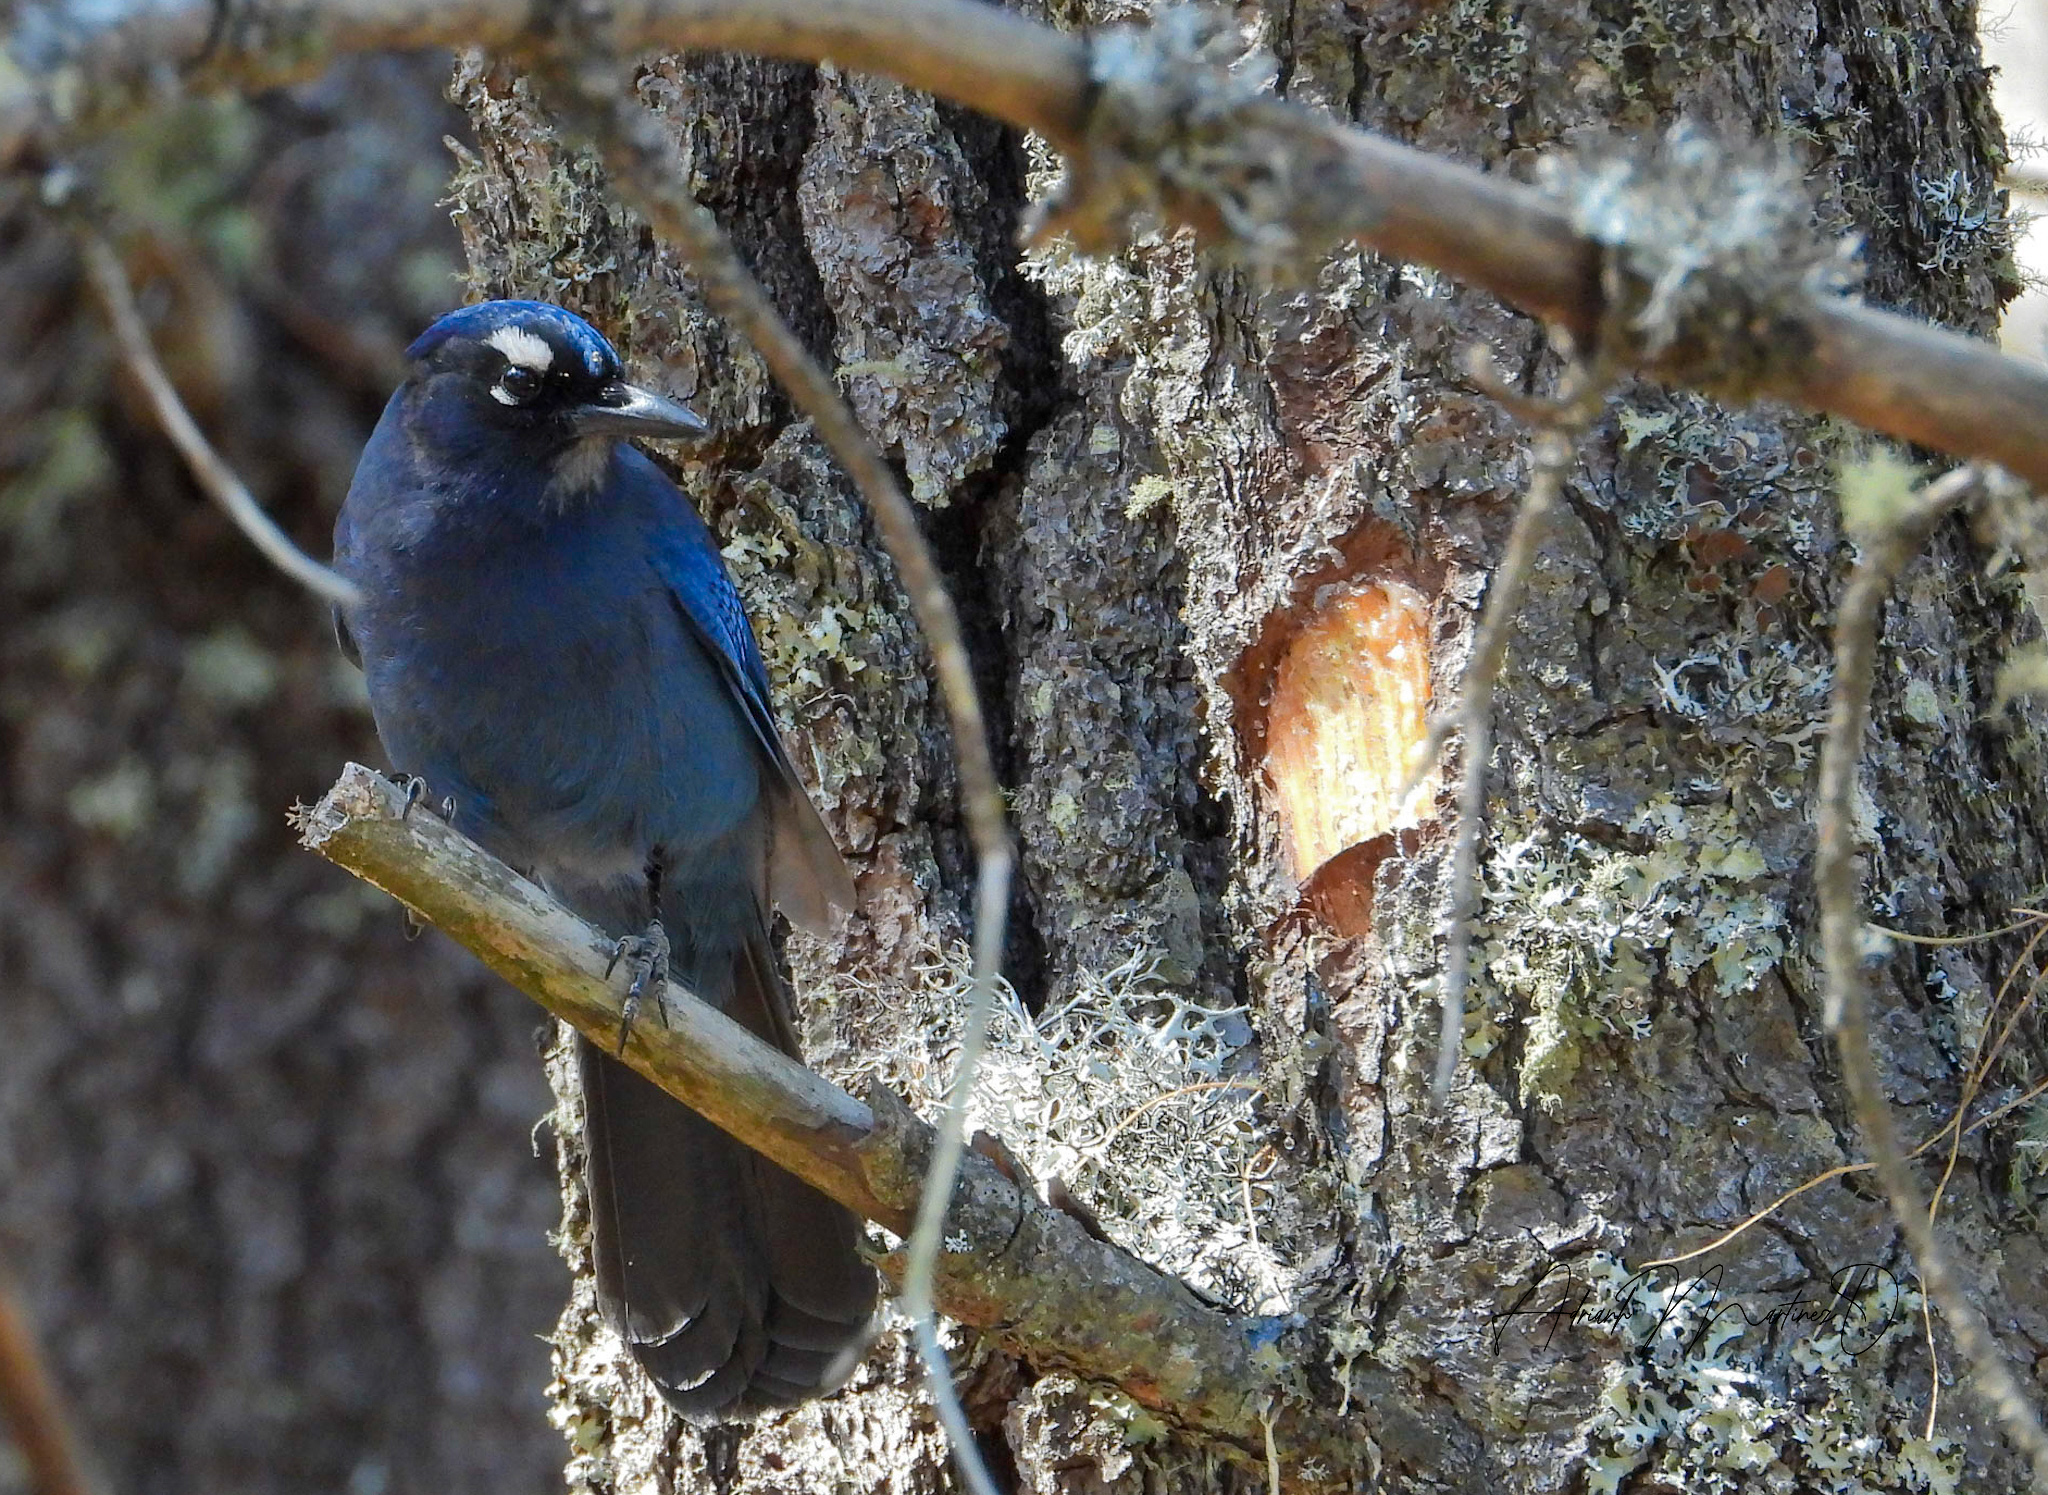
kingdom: Animalia
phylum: Chordata
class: Aves
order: Passeriformes
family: Corvidae
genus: Cyanocitta
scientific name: Cyanocitta stelleri
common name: Steller's jay
